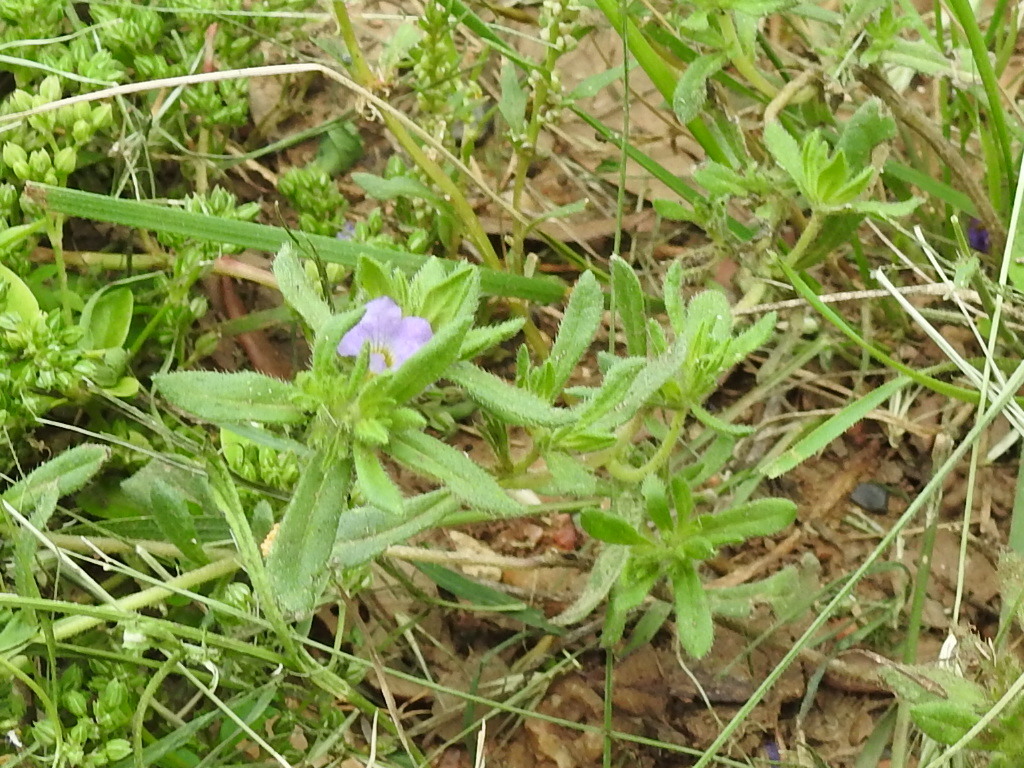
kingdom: Plantae
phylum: Tracheophyta
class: Magnoliopsida
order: Boraginales
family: Namaceae
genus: Nama
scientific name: Nama hispida
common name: Bristly nama
